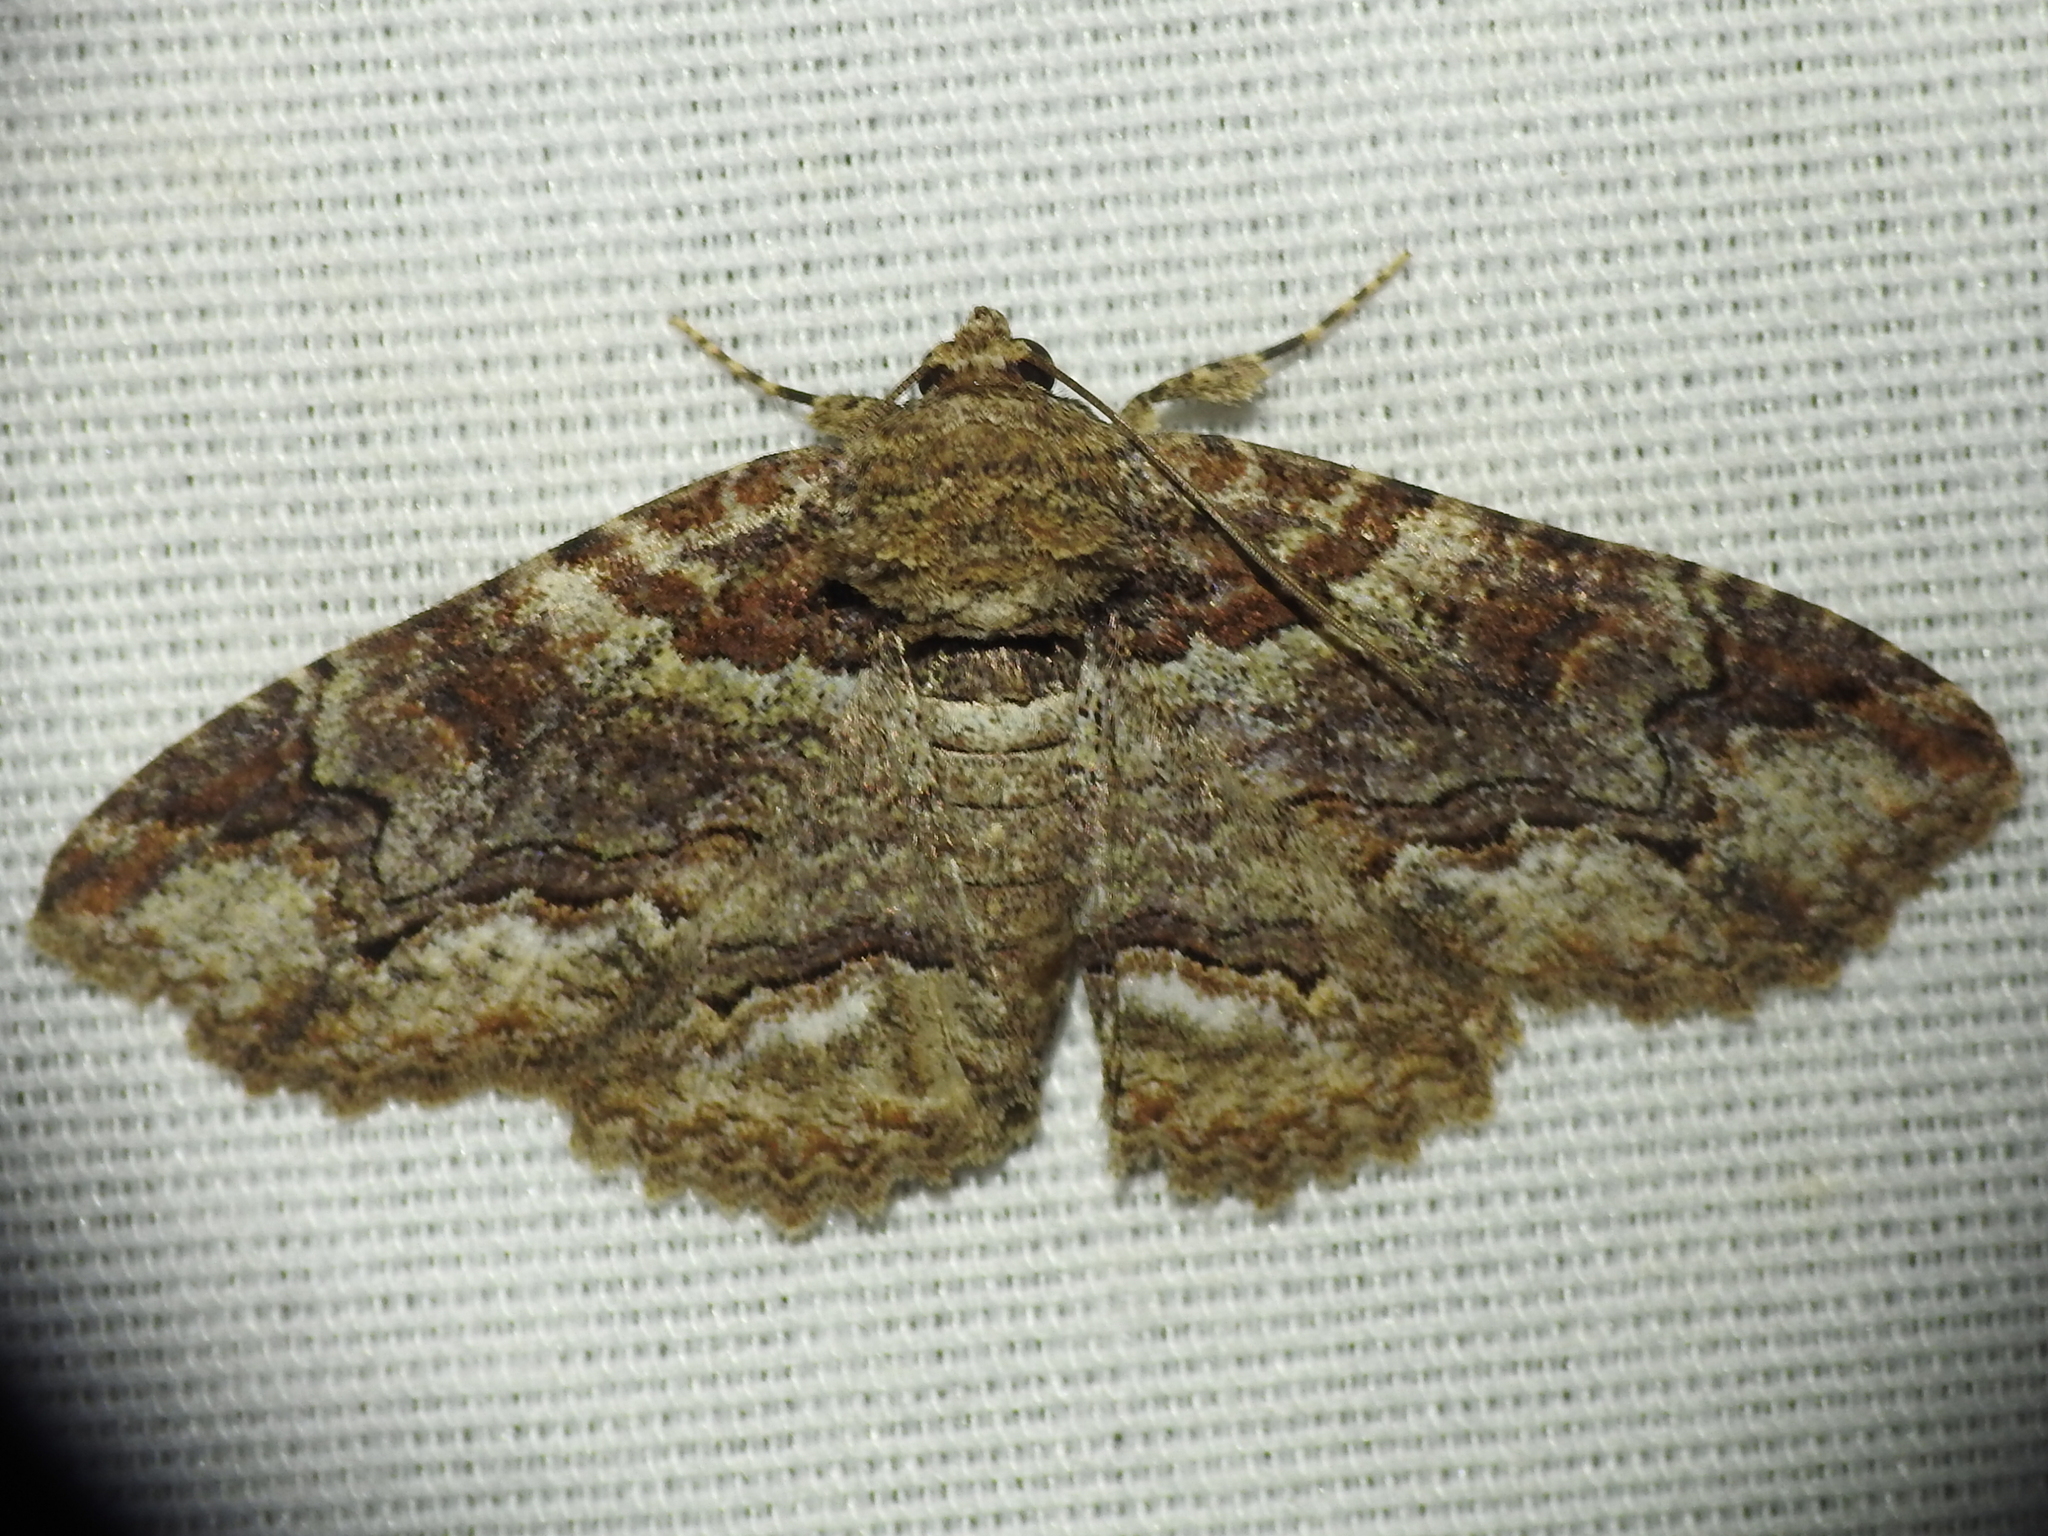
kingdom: Animalia
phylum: Arthropoda
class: Insecta
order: Lepidoptera
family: Erebidae
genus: Zale
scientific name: Zale galbanata
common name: Maple zale
